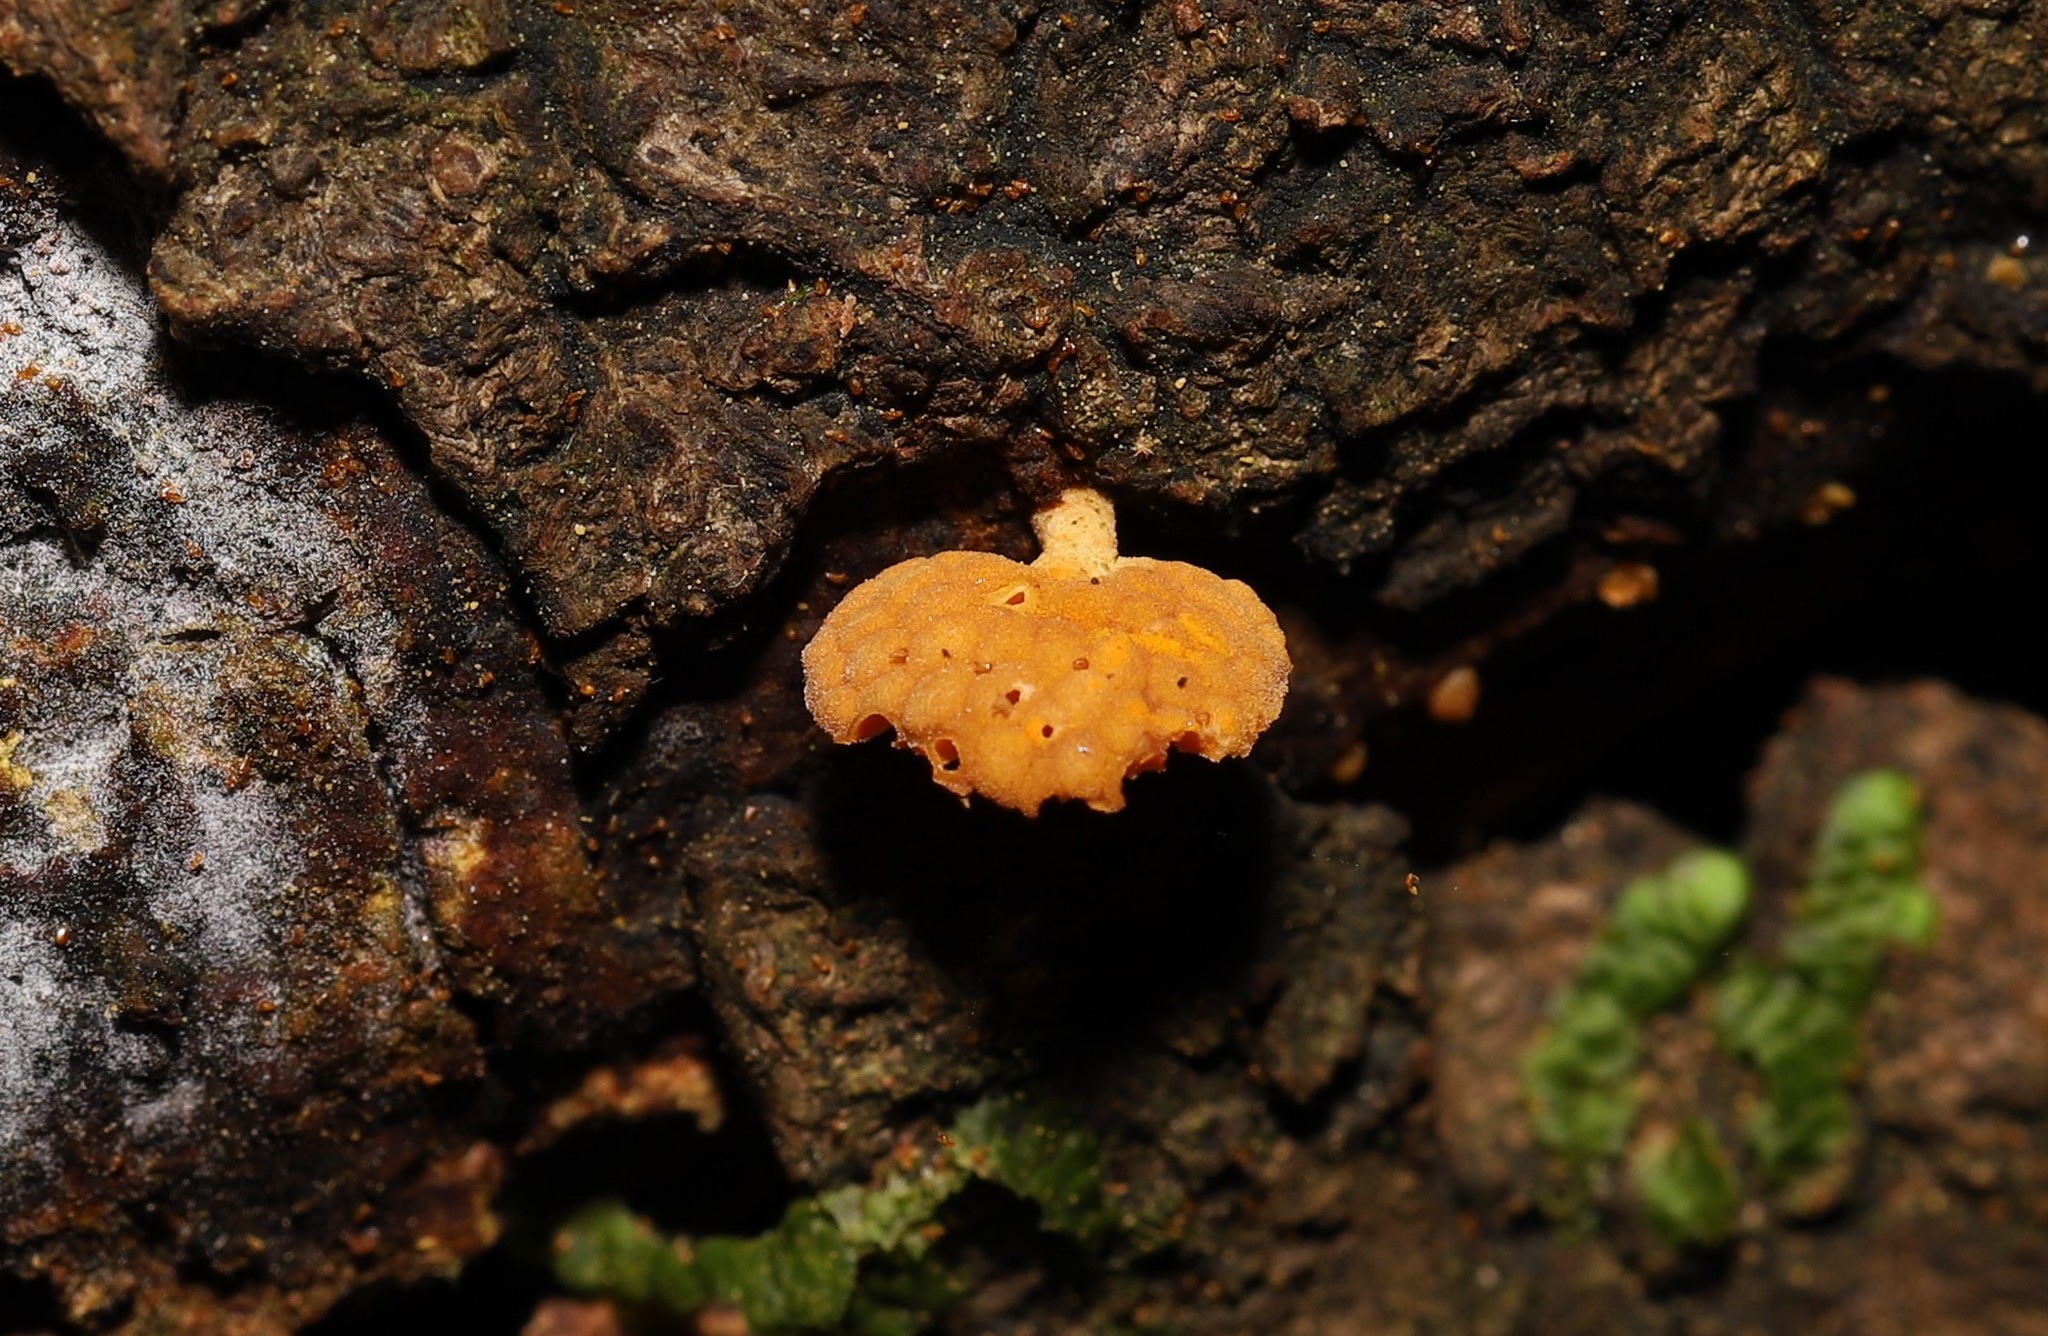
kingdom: Fungi
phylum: Basidiomycota
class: Agaricomycetes
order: Agaricales
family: Mycenaceae
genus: Favolaschia
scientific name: Favolaschia claudopus
